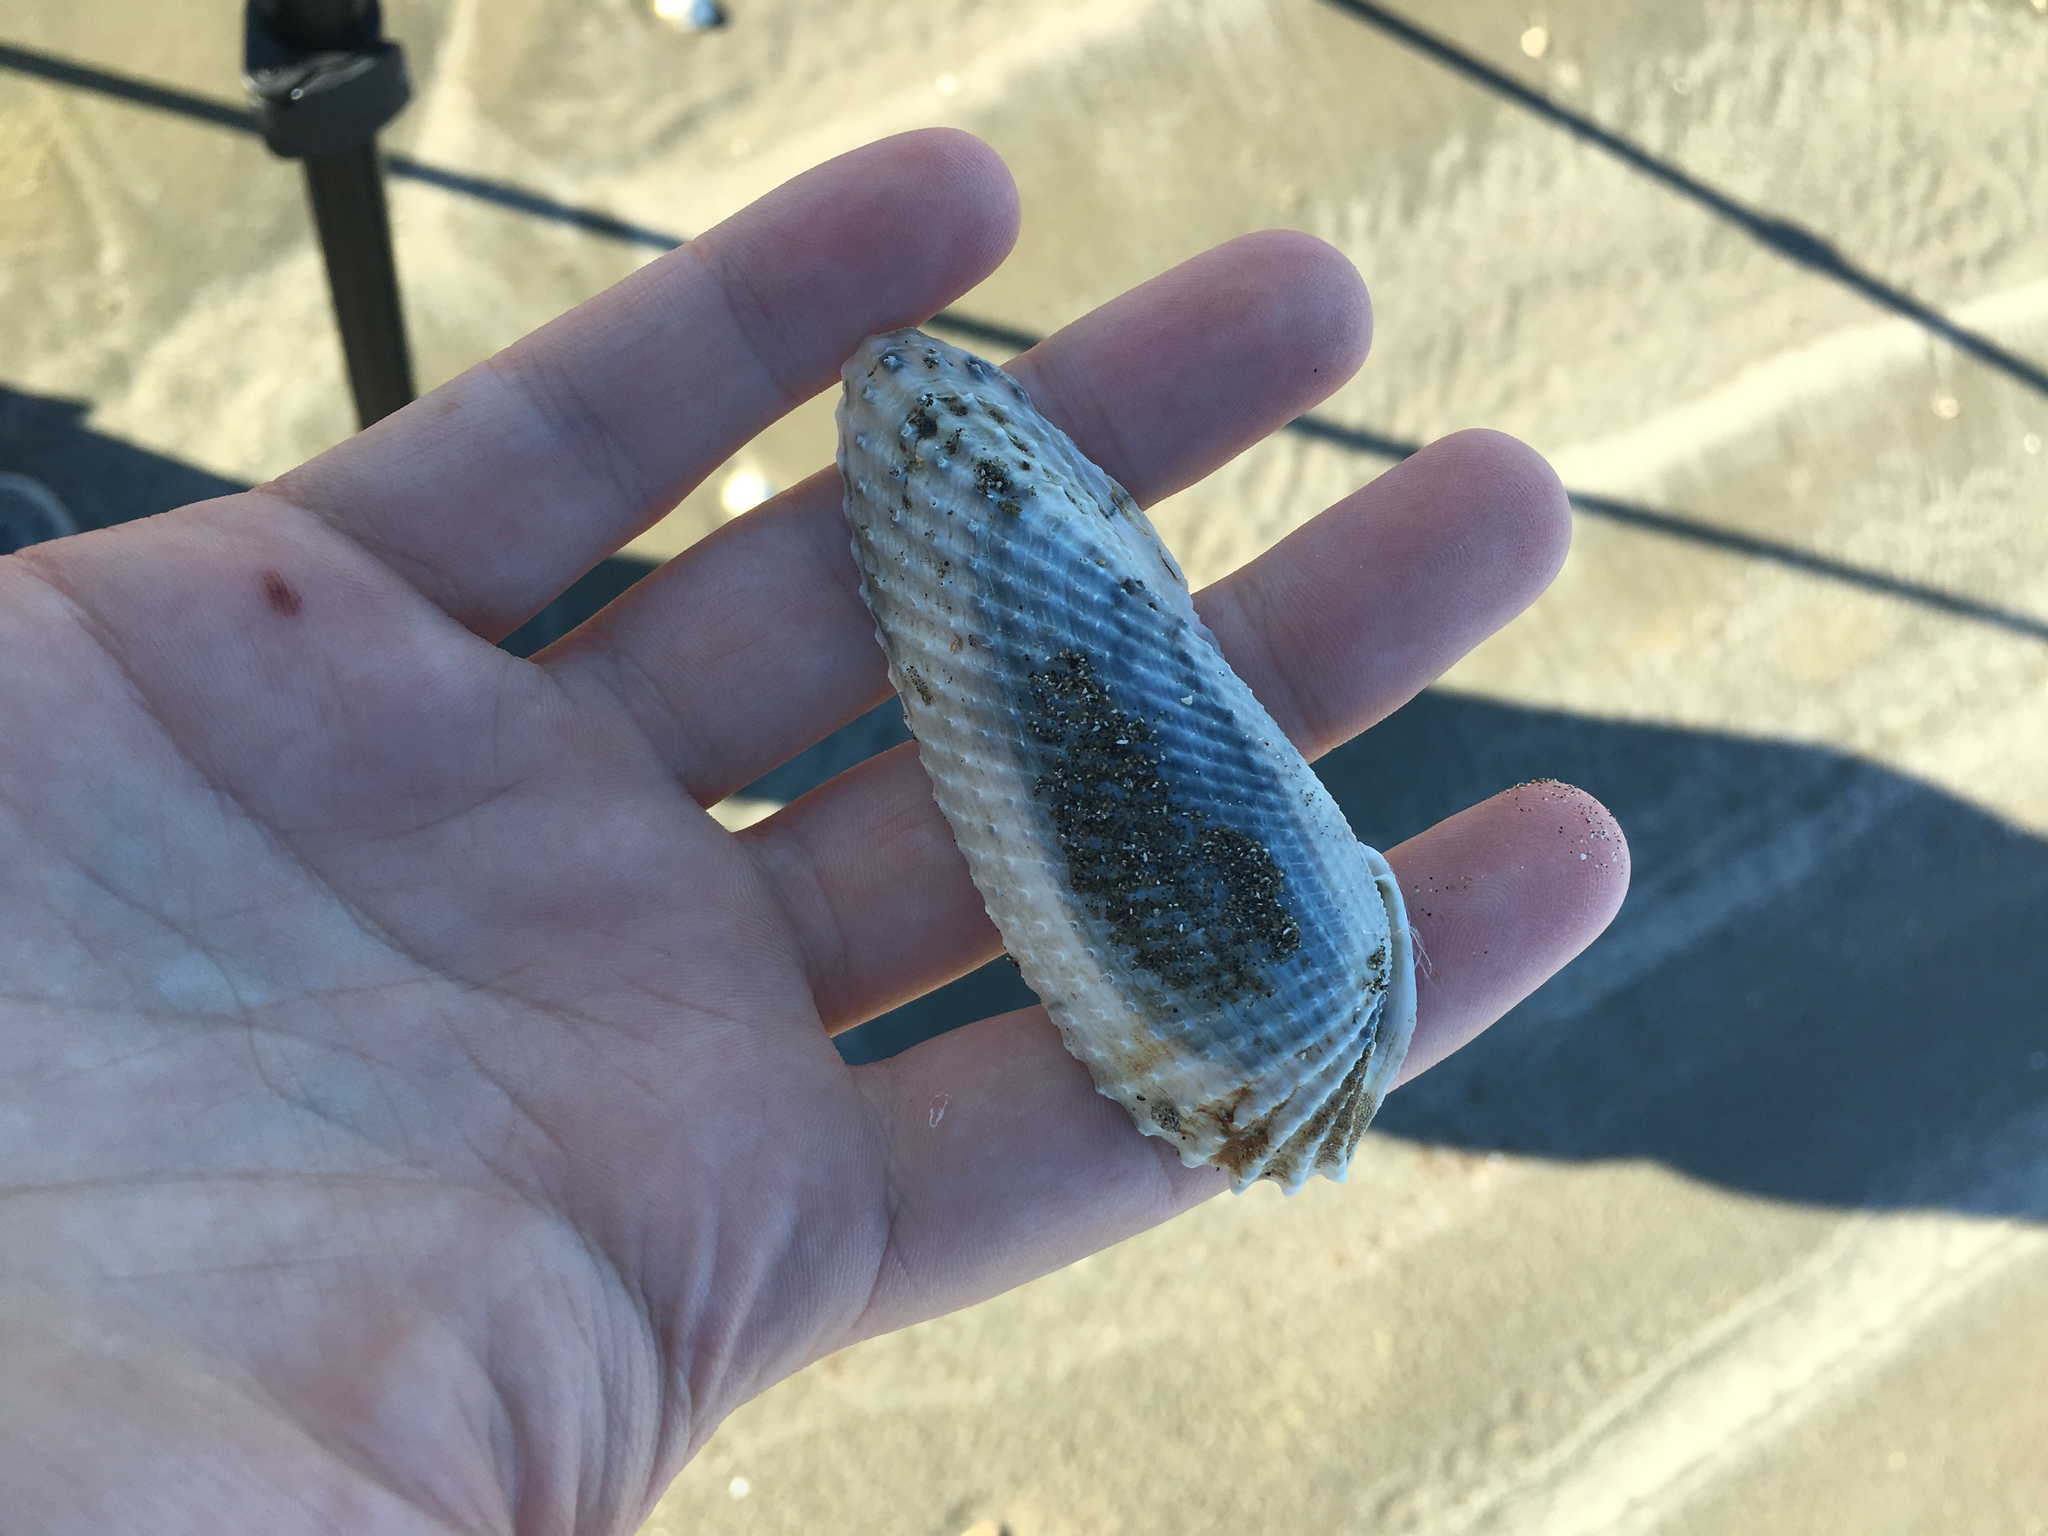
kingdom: Animalia
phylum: Mollusca
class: Bivalvia
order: Myida
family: Pholadidae
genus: Cyrtopleura
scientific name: Cyrtopleura costata
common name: Angel wing
